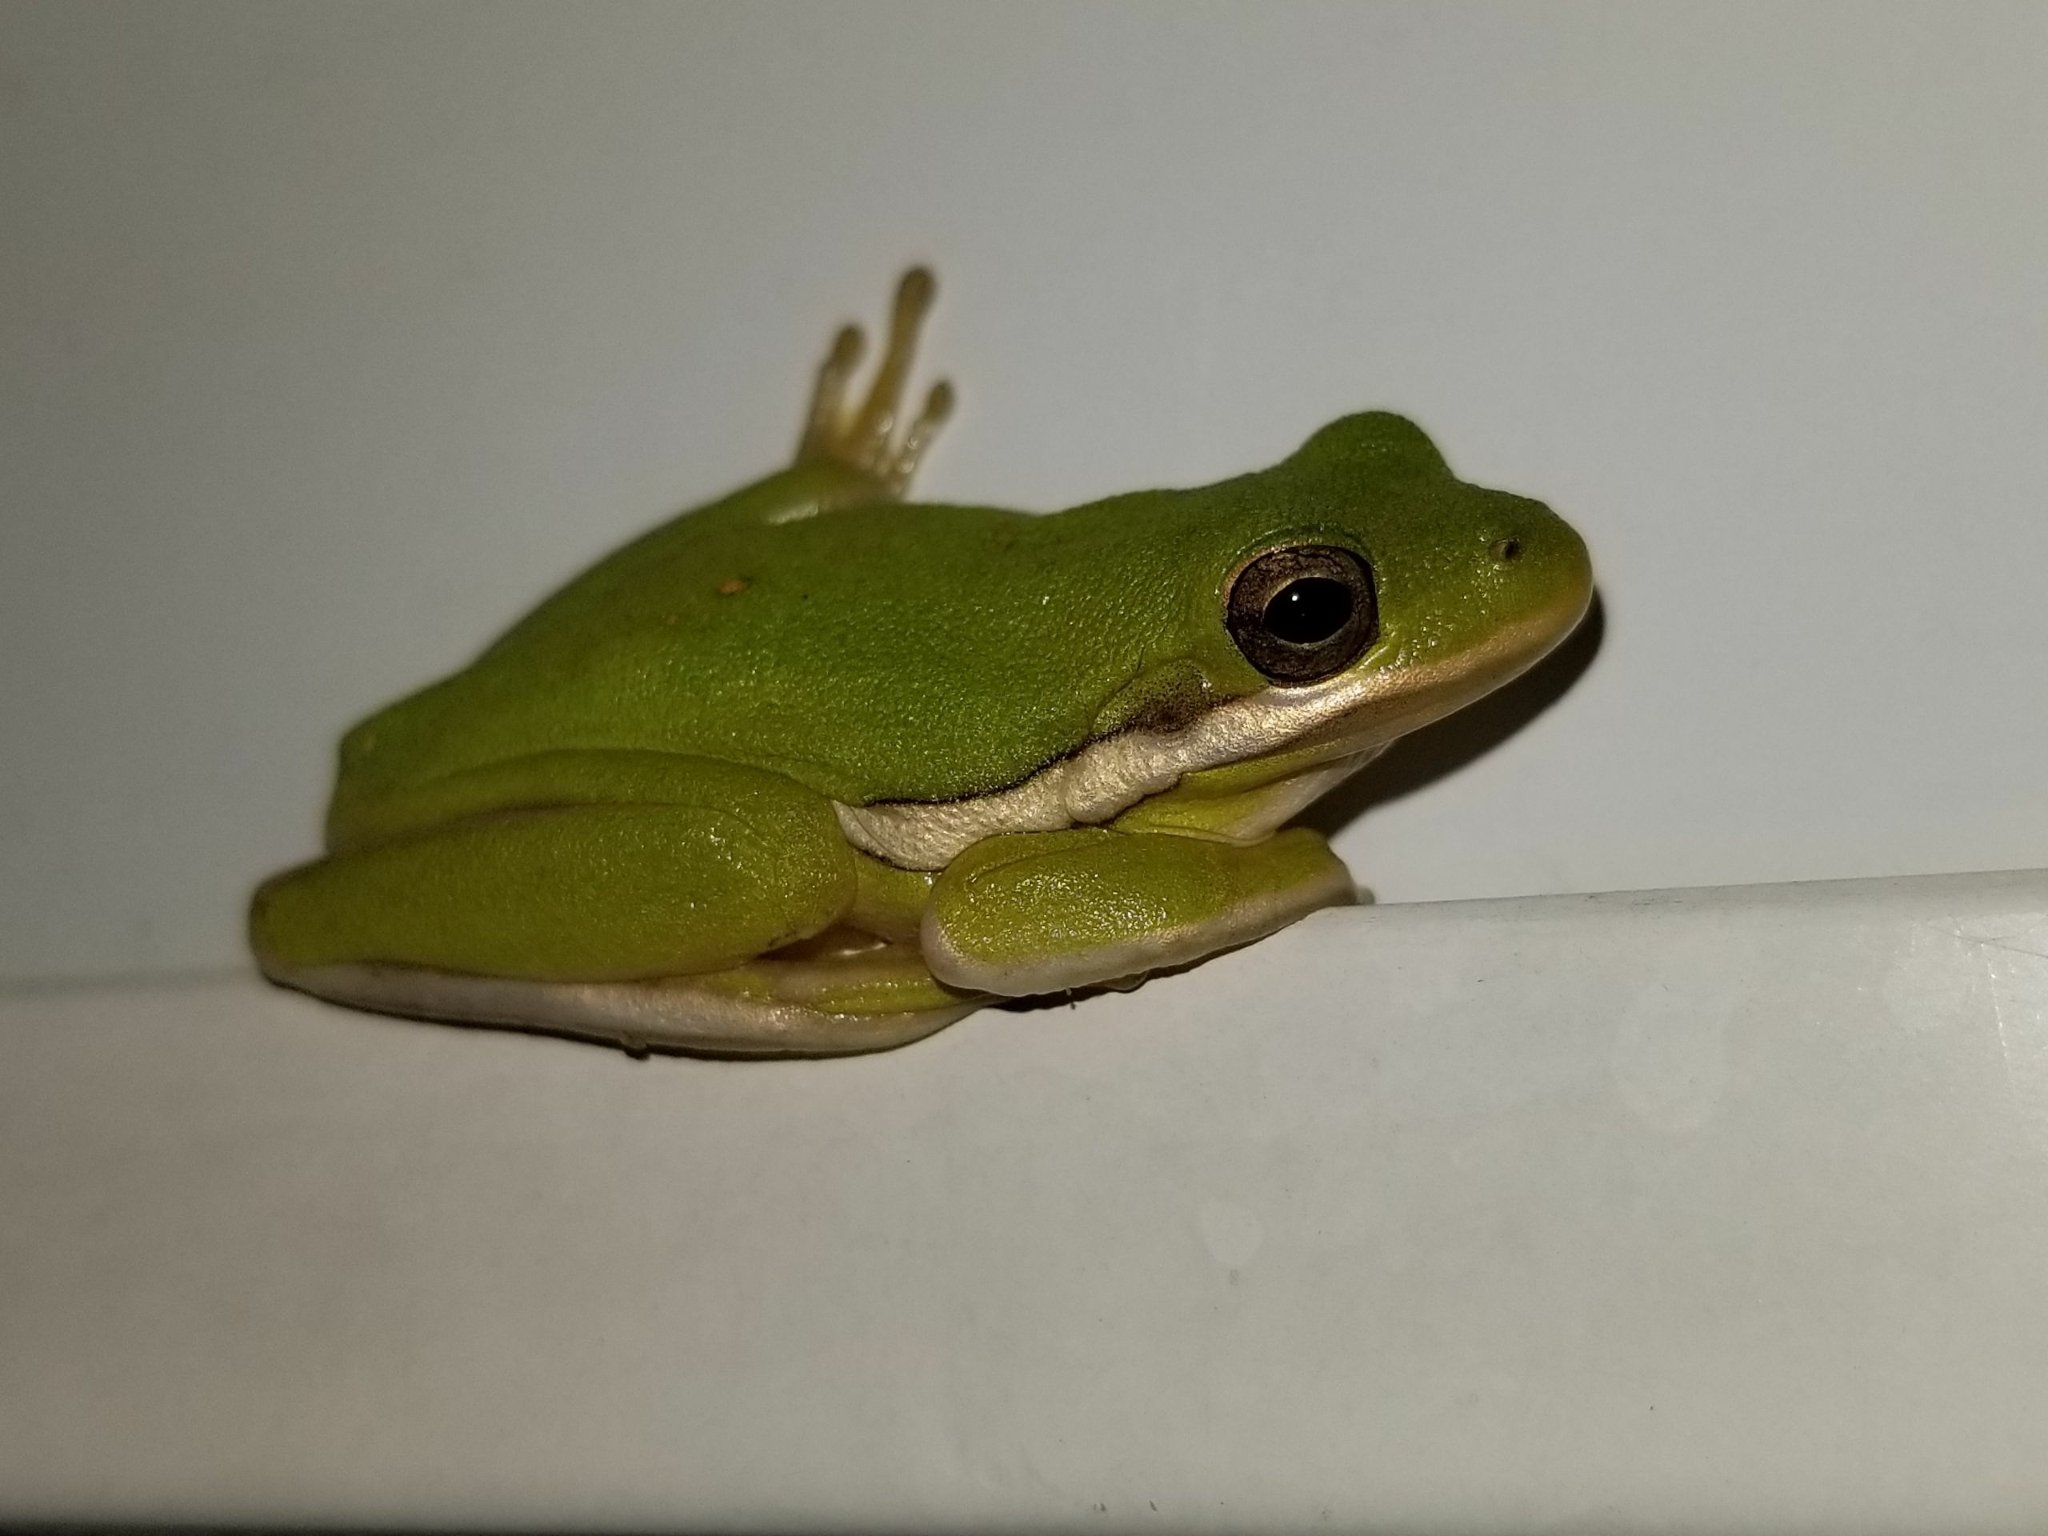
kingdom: Animalia
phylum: Chordata
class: Amphibia
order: Anura
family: Hylidae
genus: Dryophytes
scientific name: Dryophytes cinereus
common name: Green treefrog
